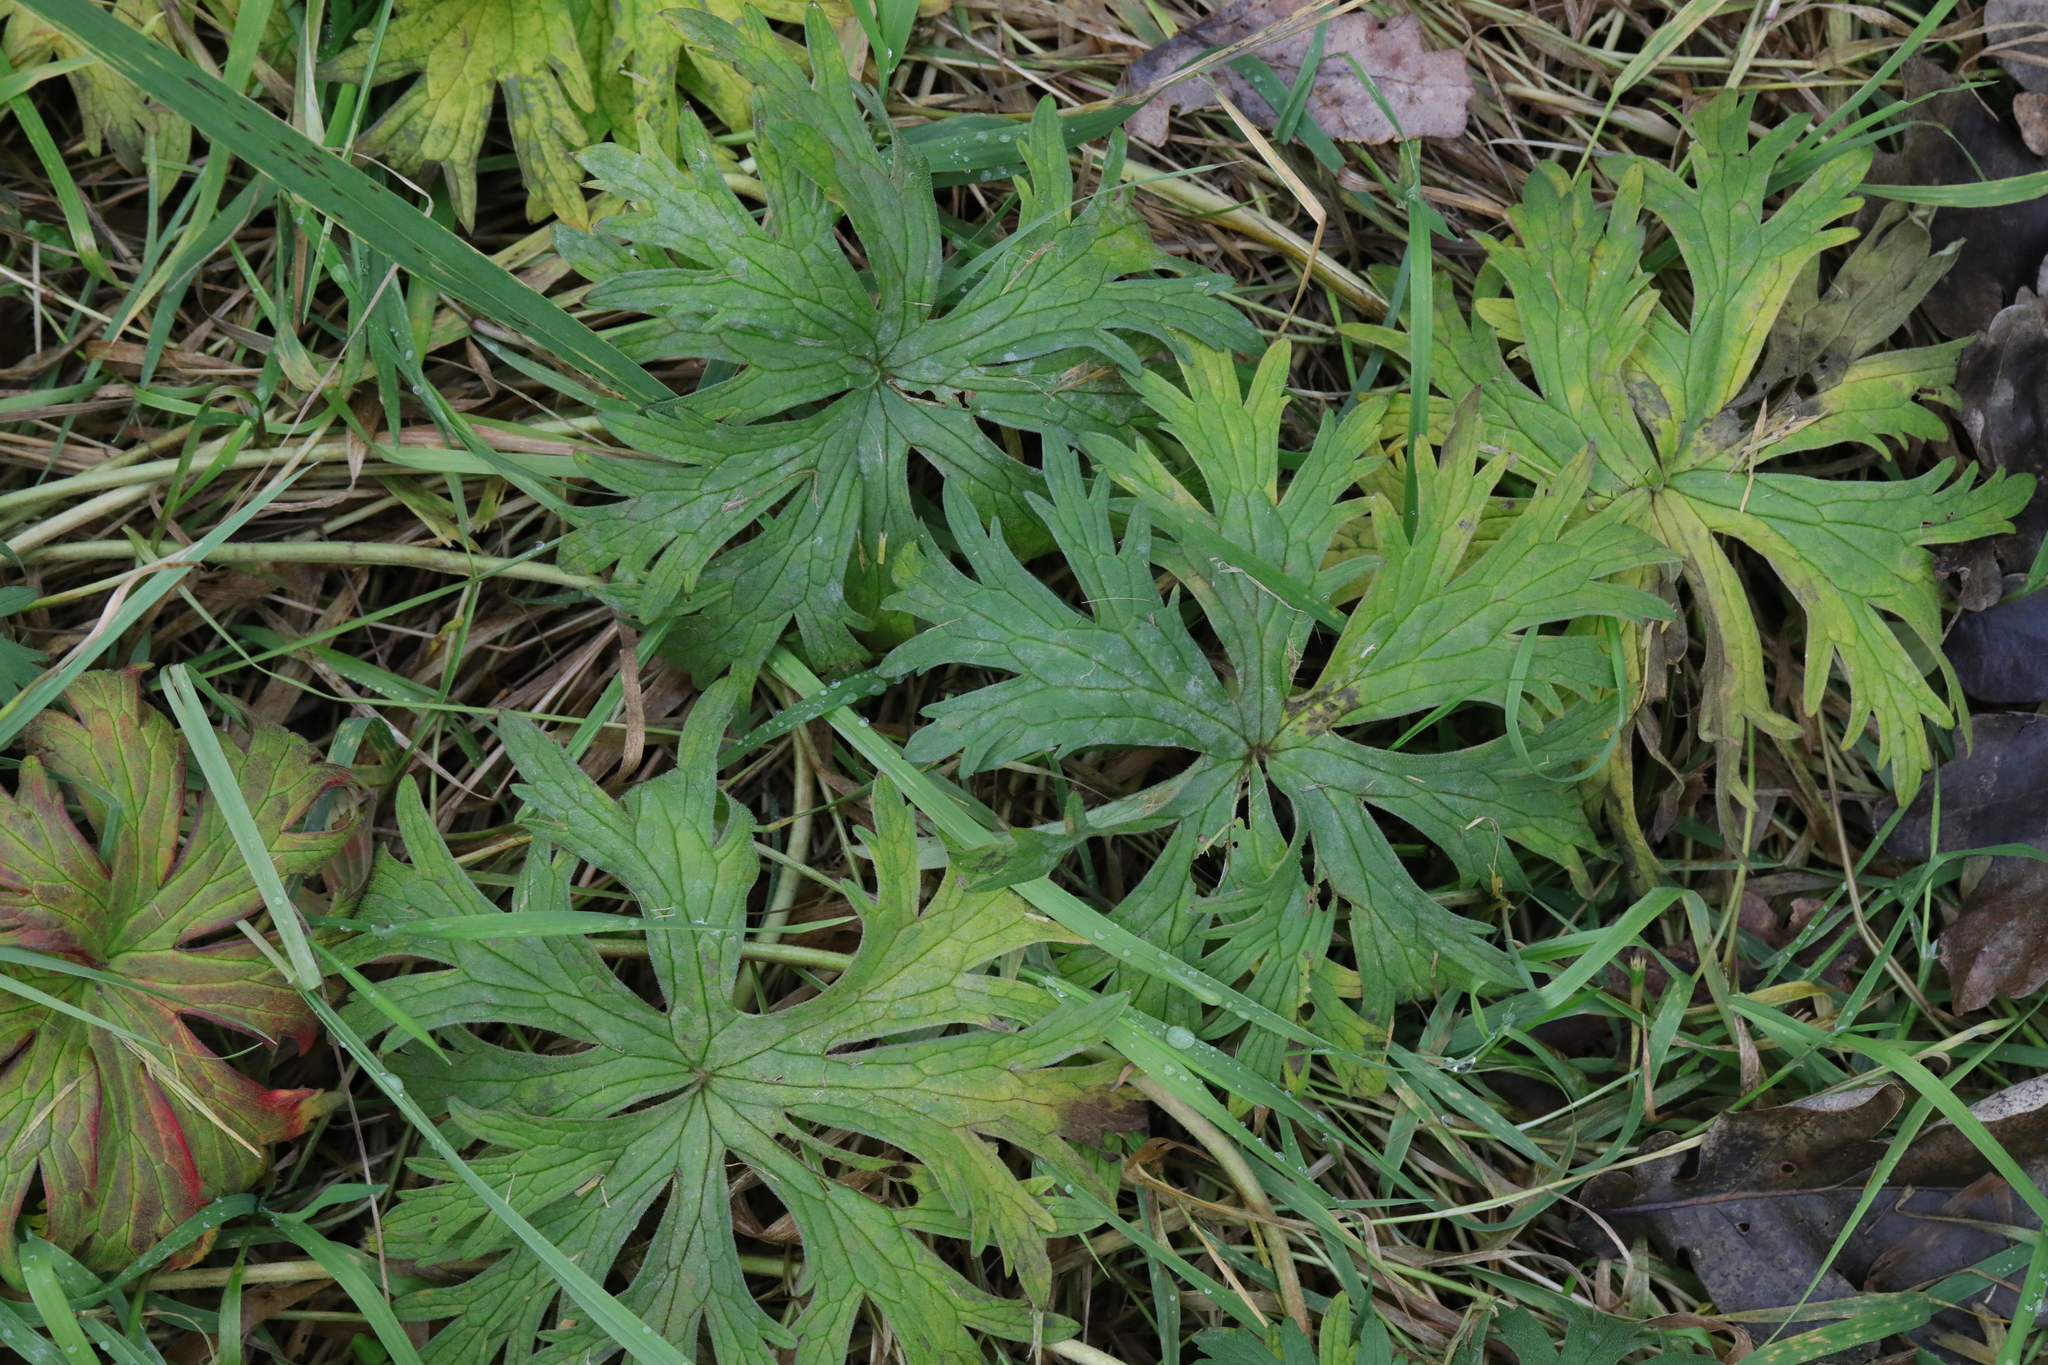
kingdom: Plantae
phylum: Tracheophyta
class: Magnoliopsida
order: Geraniales
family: Geraniaceae
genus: Geranium
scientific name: Geranium pratense
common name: Meadow crane's-bill
